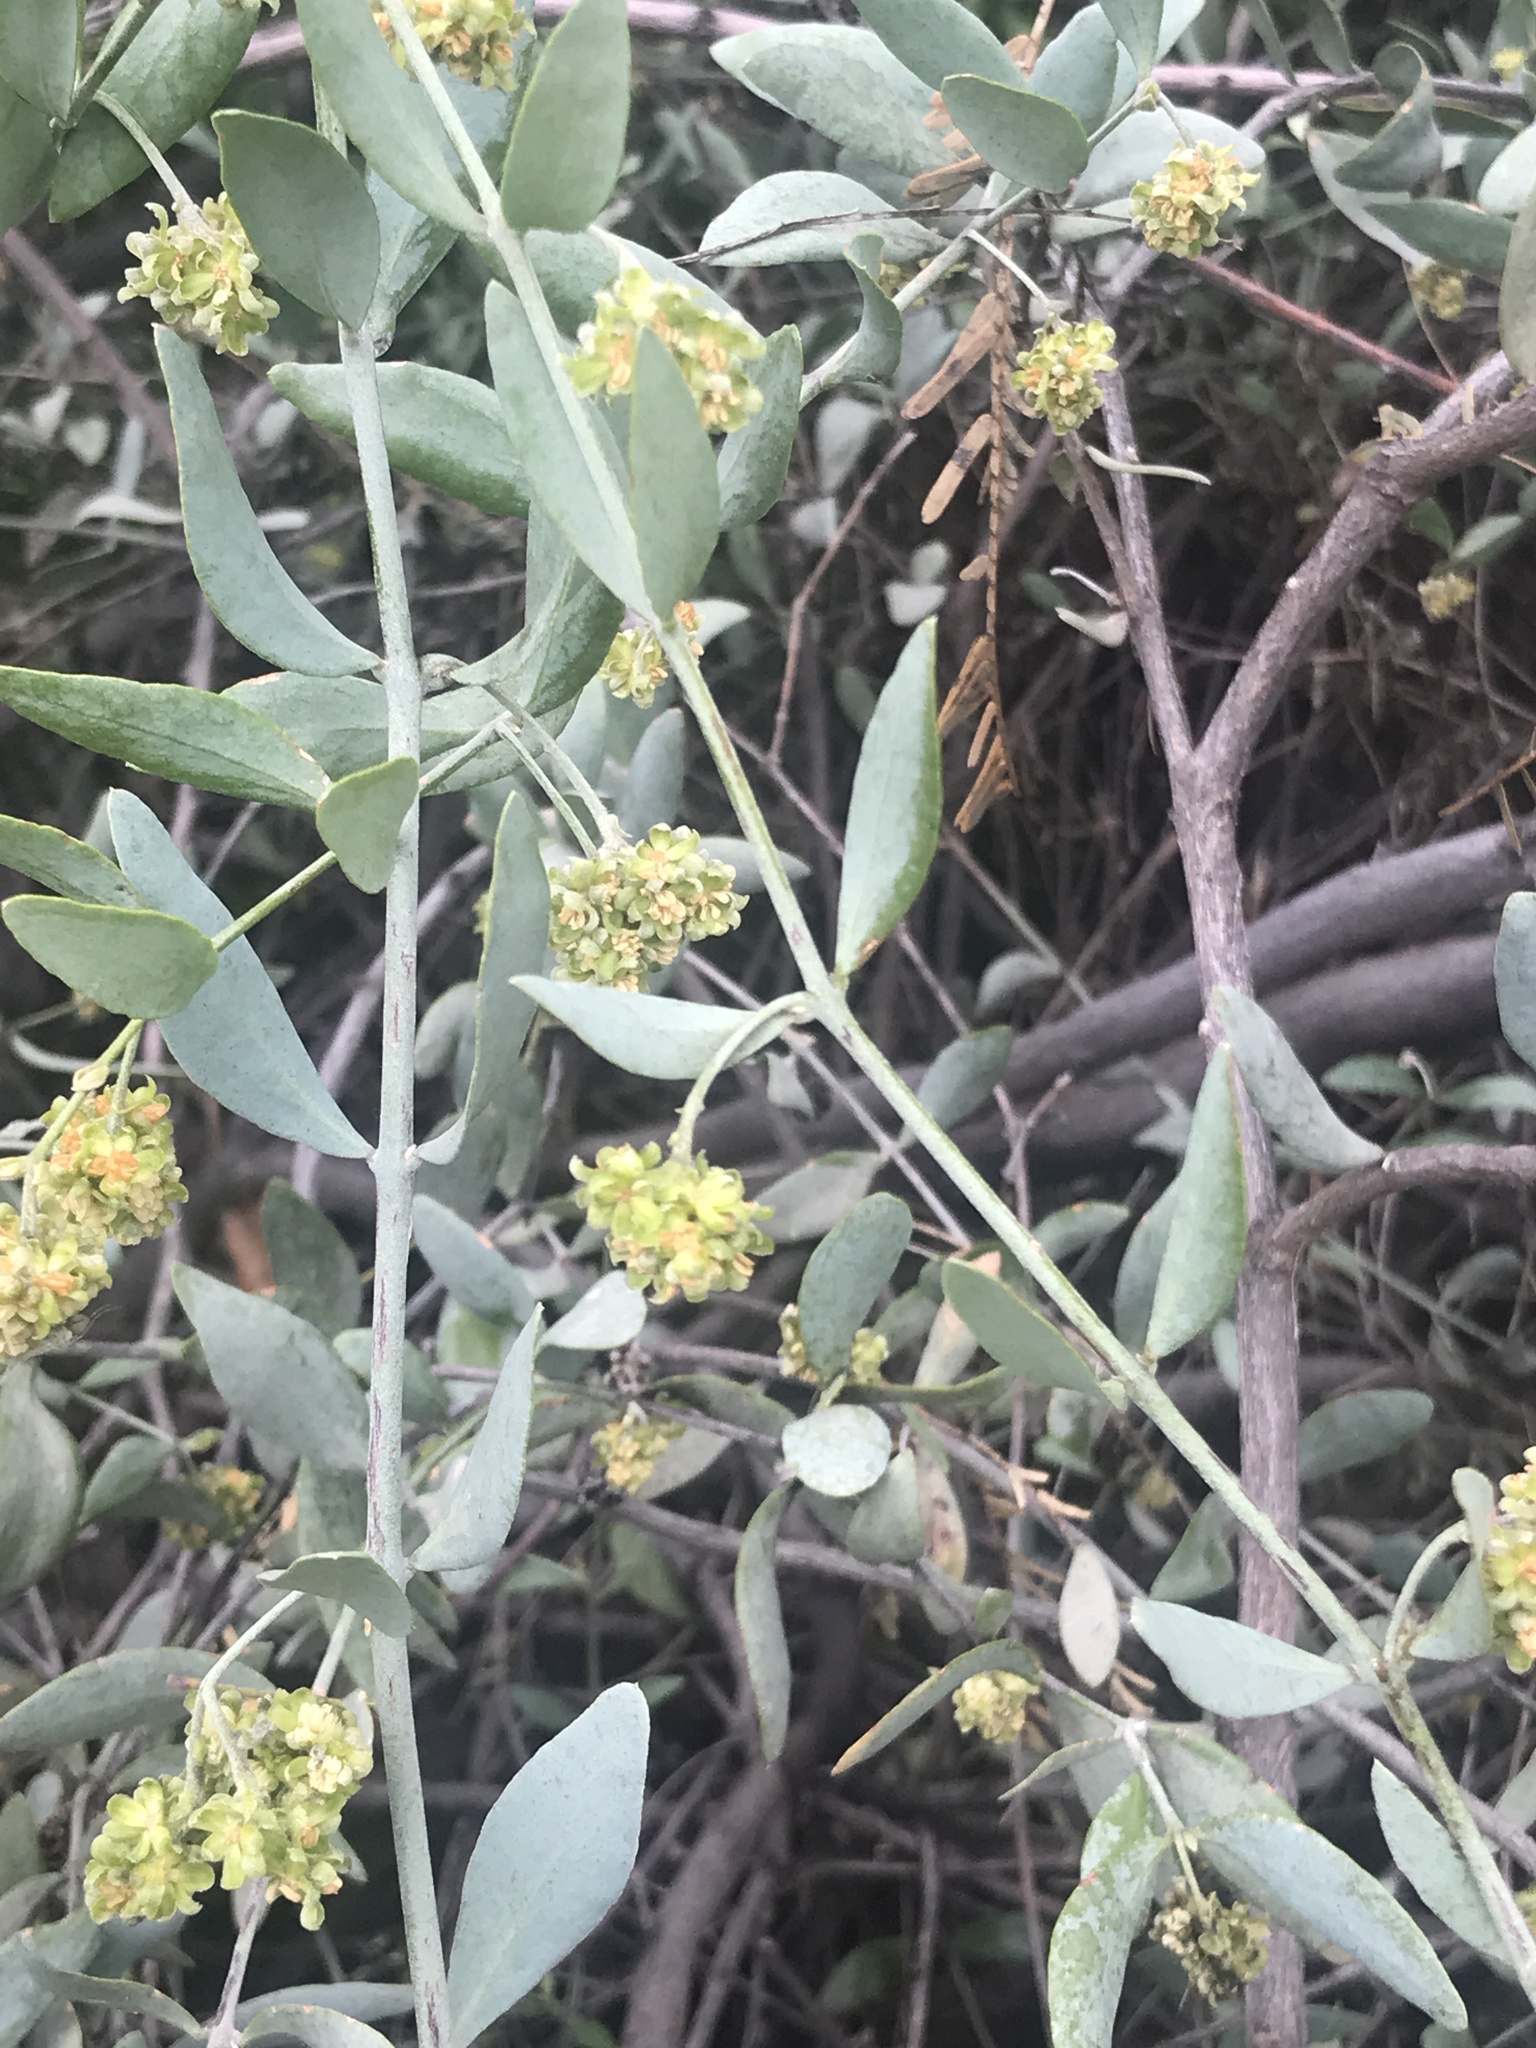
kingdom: Plantae
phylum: Tracheophyta
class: Magnoliopsida
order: Caryophyllales
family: Simmondsiaceae
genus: Simmondsia
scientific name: Simmondsia chinensis
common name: Jojoba
